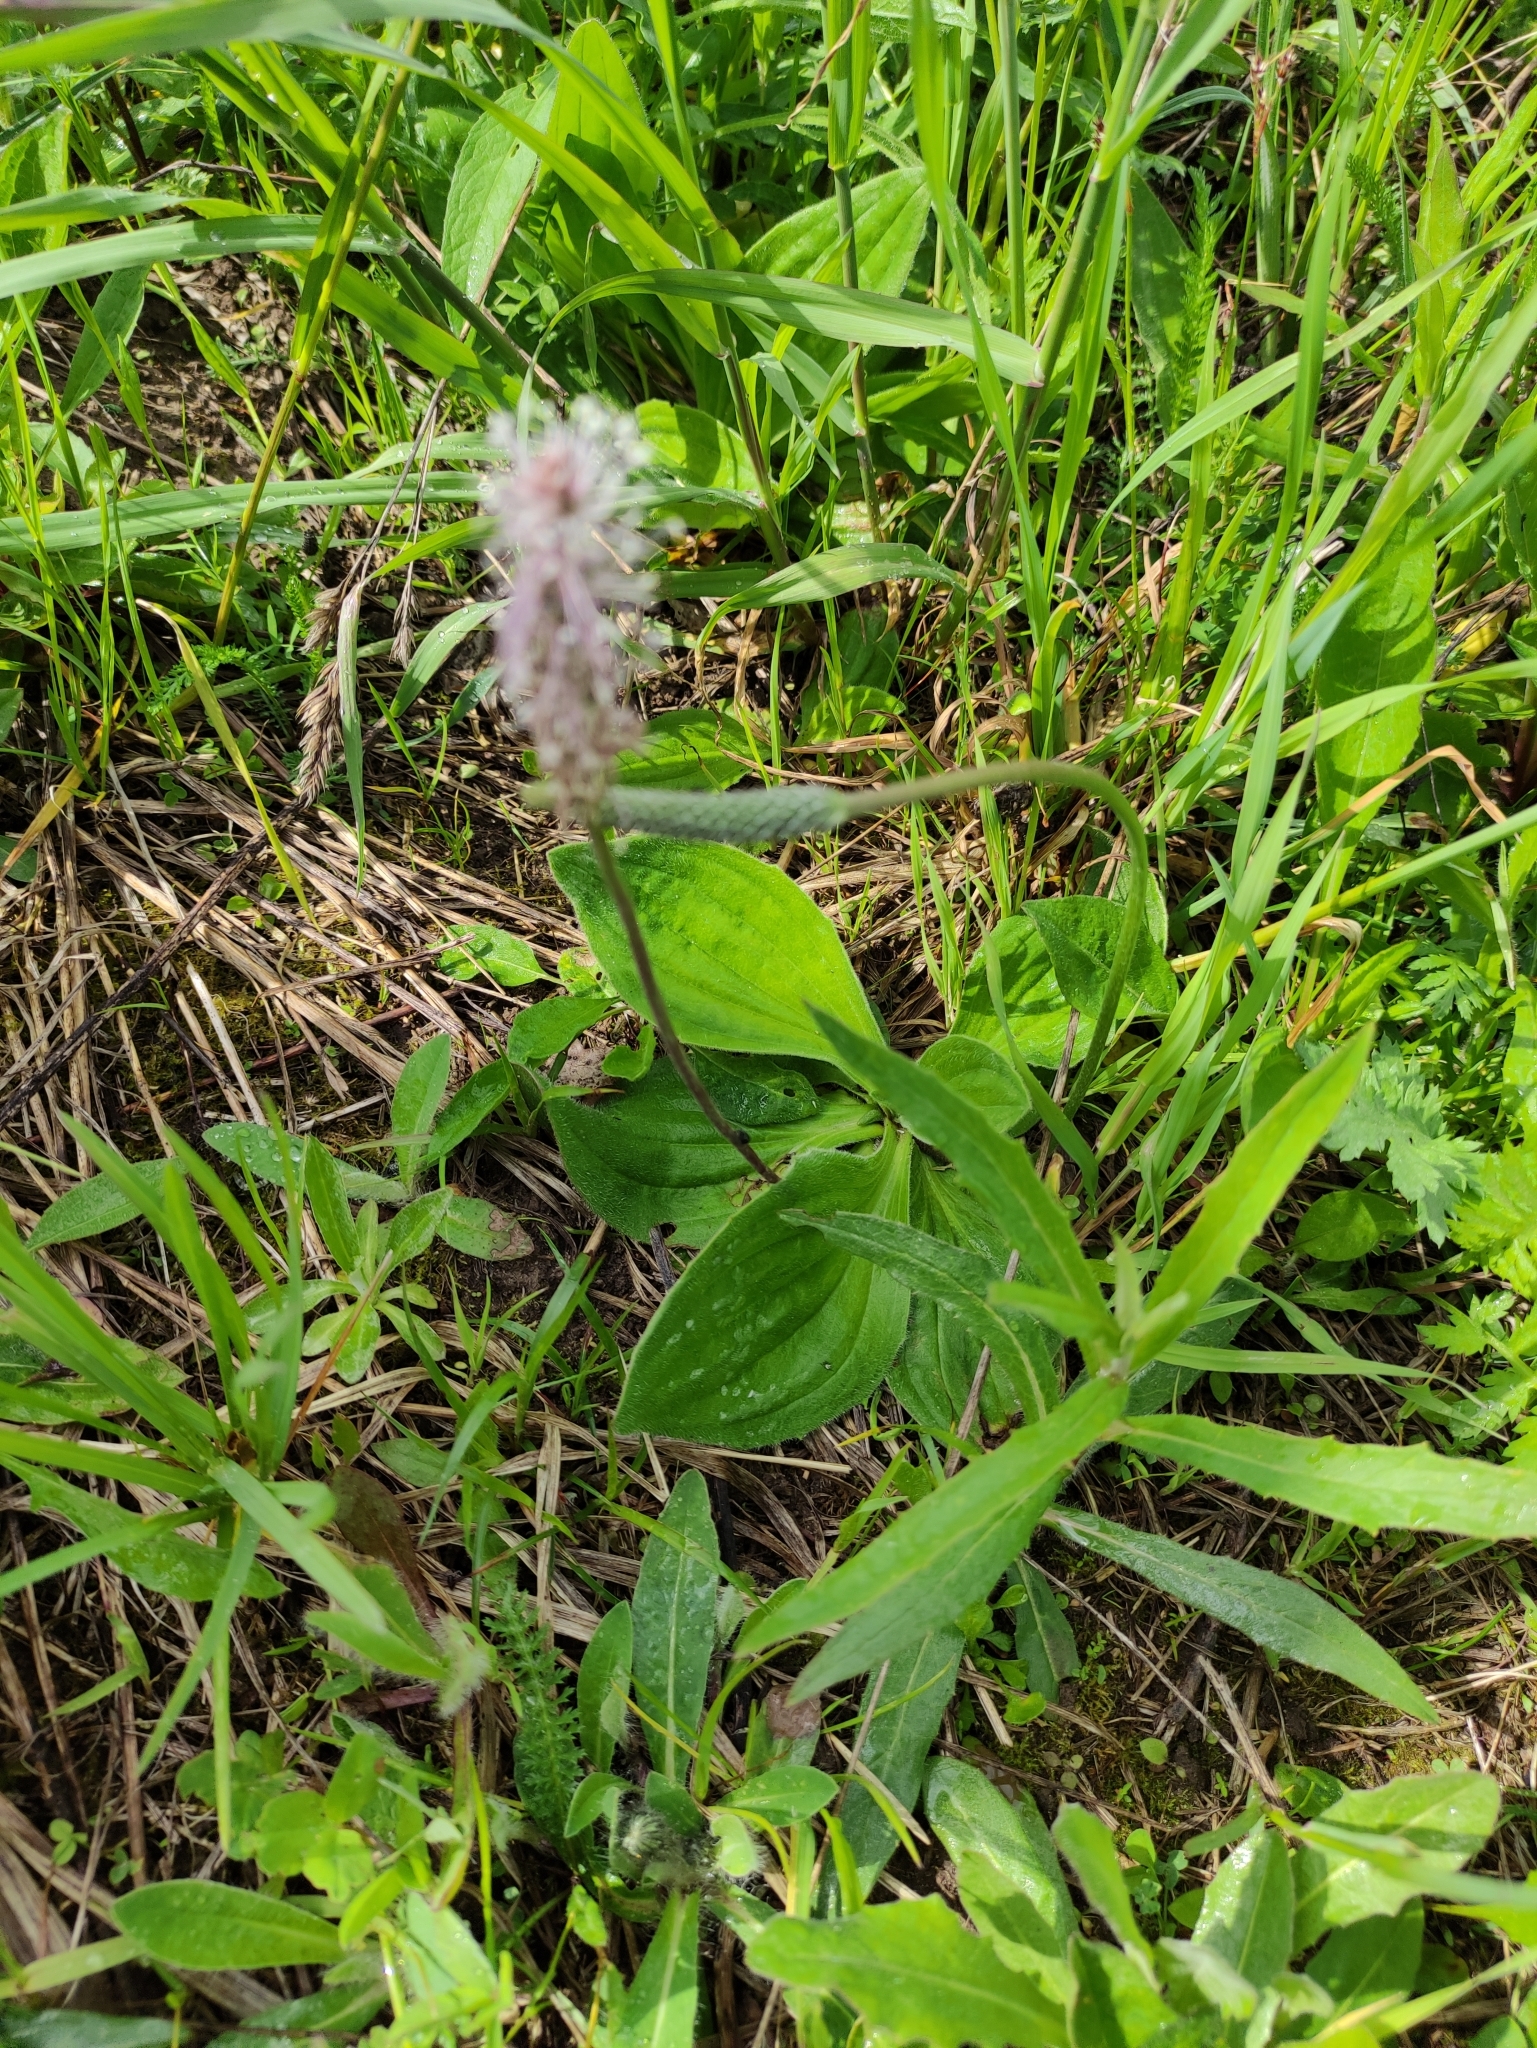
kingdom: Plantae
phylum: Tracheophyta
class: Magnoliopsida
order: Lamiales
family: Plantaginaceae
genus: Plantago
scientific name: Plantago media
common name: Hoary plantain
